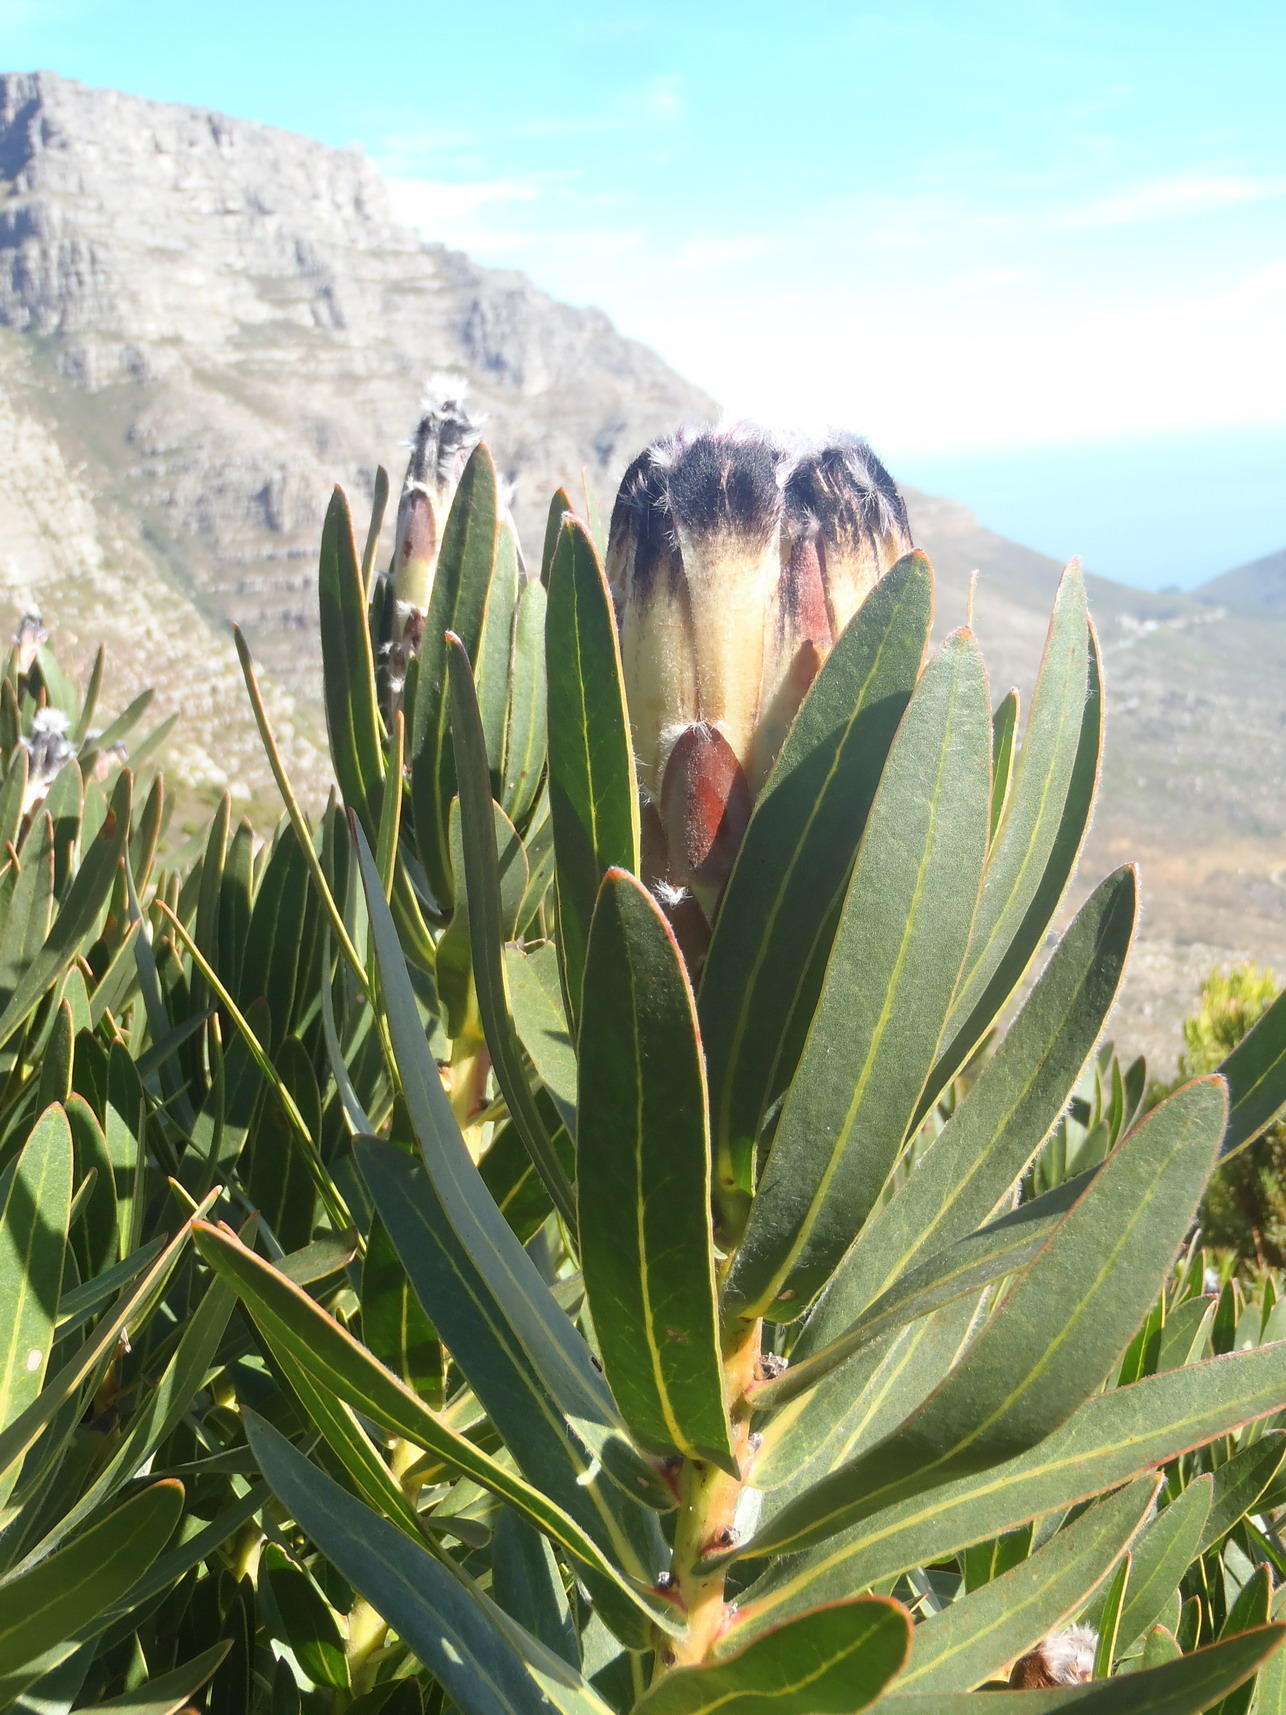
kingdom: Plantae
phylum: Tracheophyta
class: Magnoliopsida
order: Proteales
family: Proteaceae
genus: Protea
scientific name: Protea lepidocarpodendron
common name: Black-bearded protea
